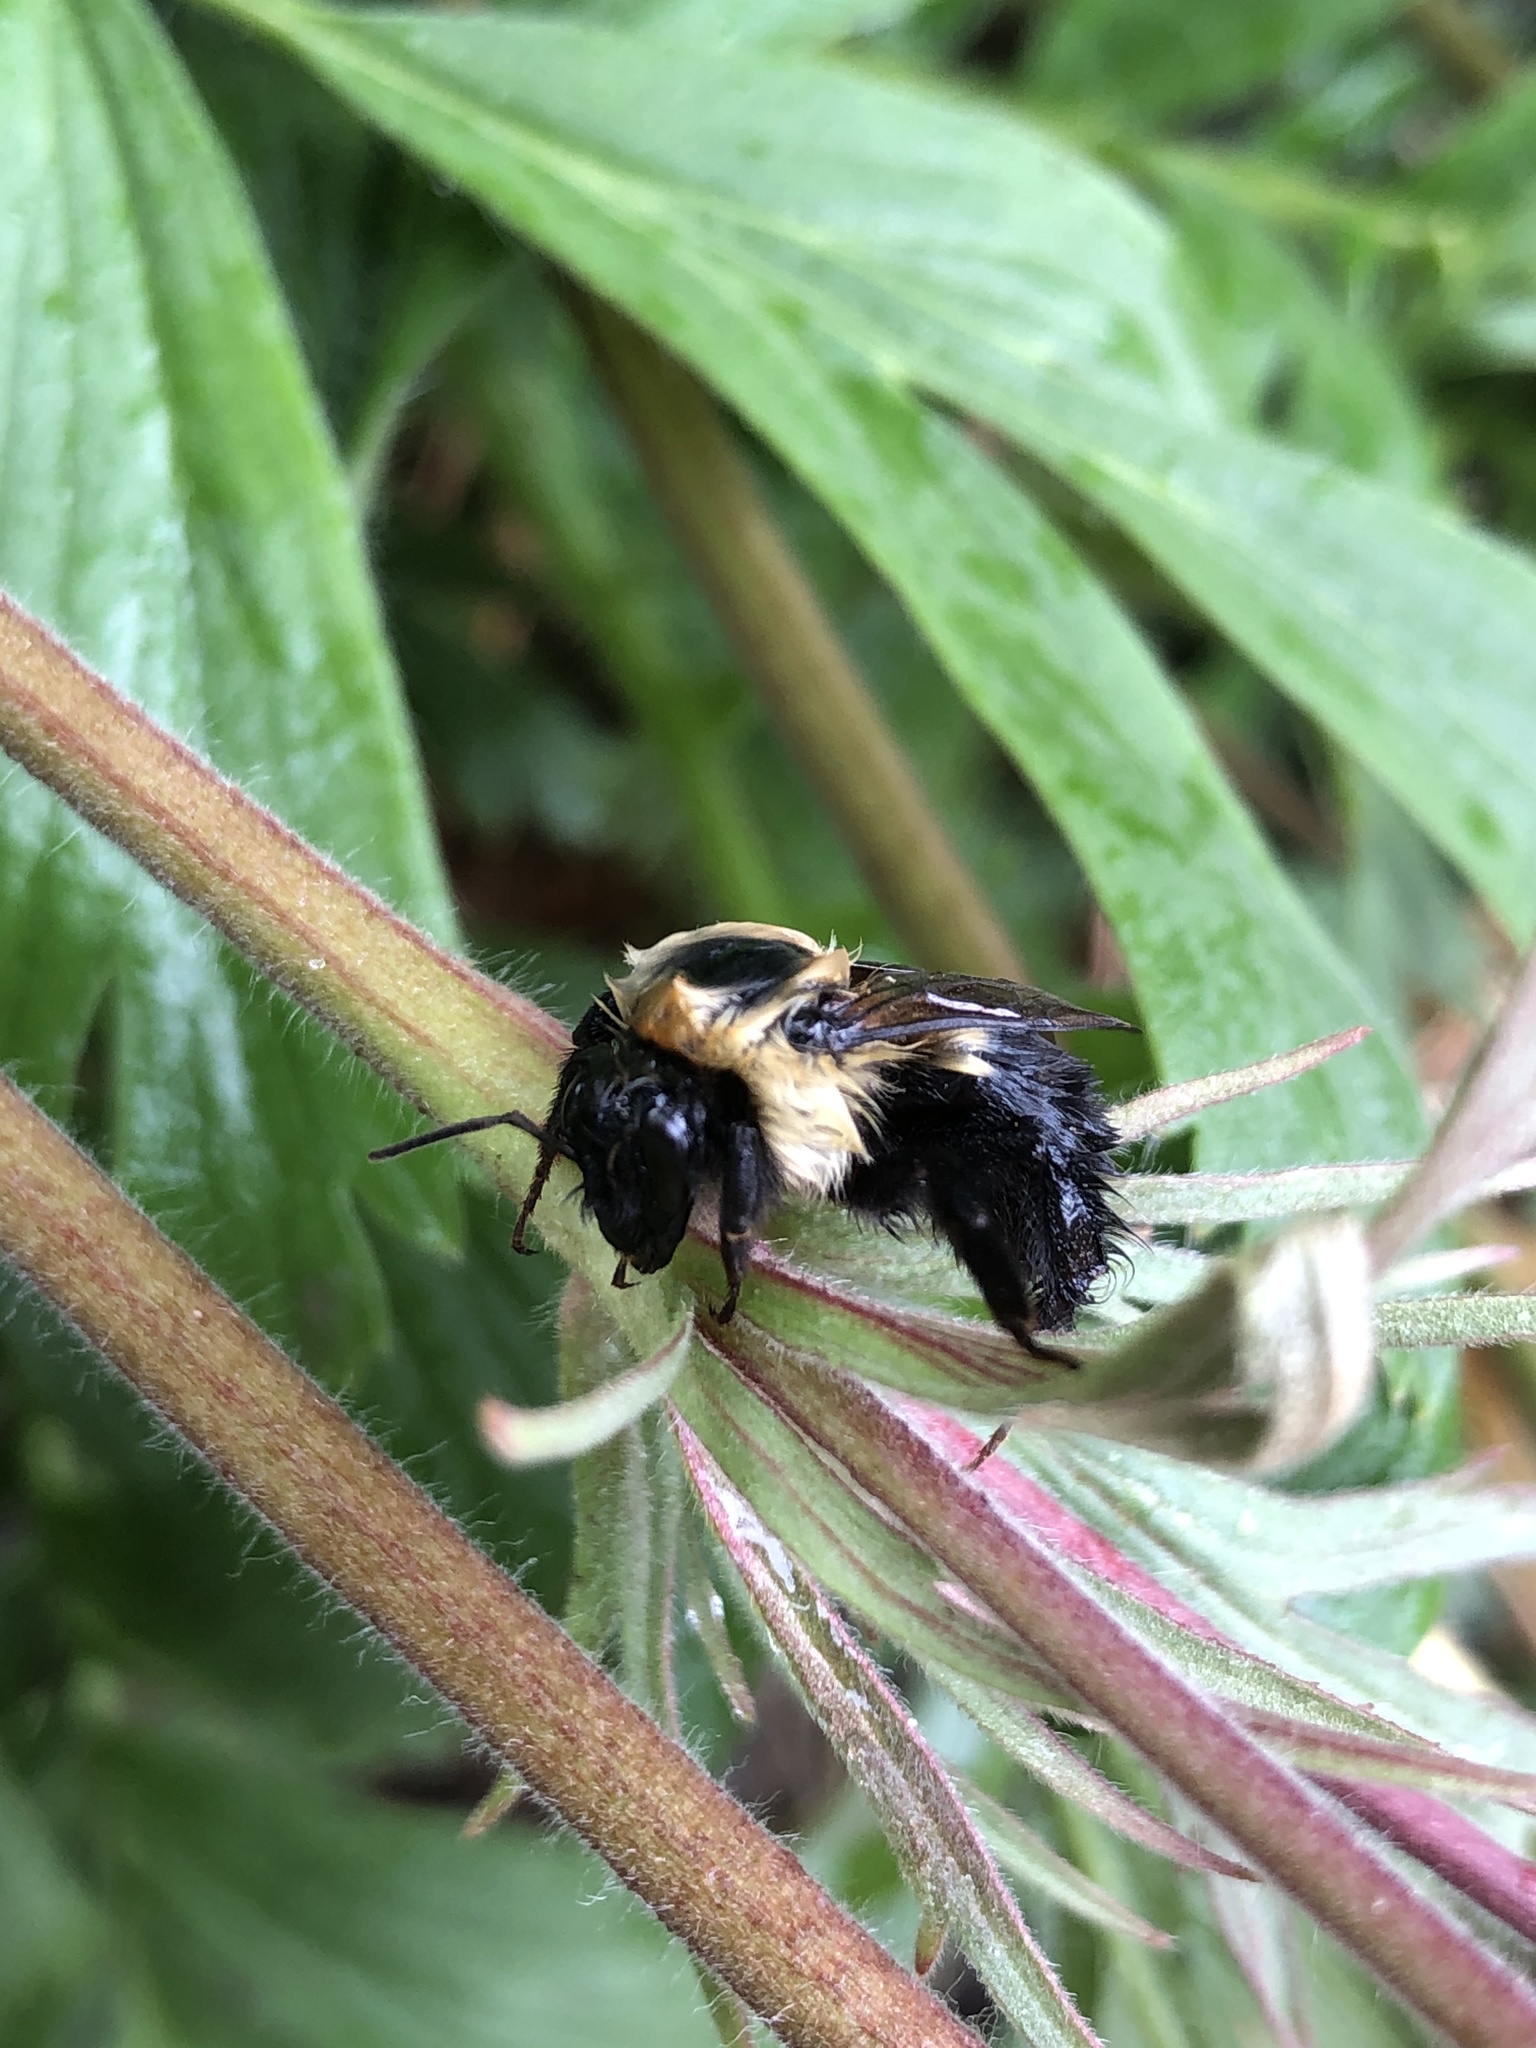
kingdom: Animalia
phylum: Arthropoda
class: Insecta
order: Hymenoptera
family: Apidae
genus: Bombus
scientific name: Bombus griseocollis
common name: Brown-belted bumble bee
